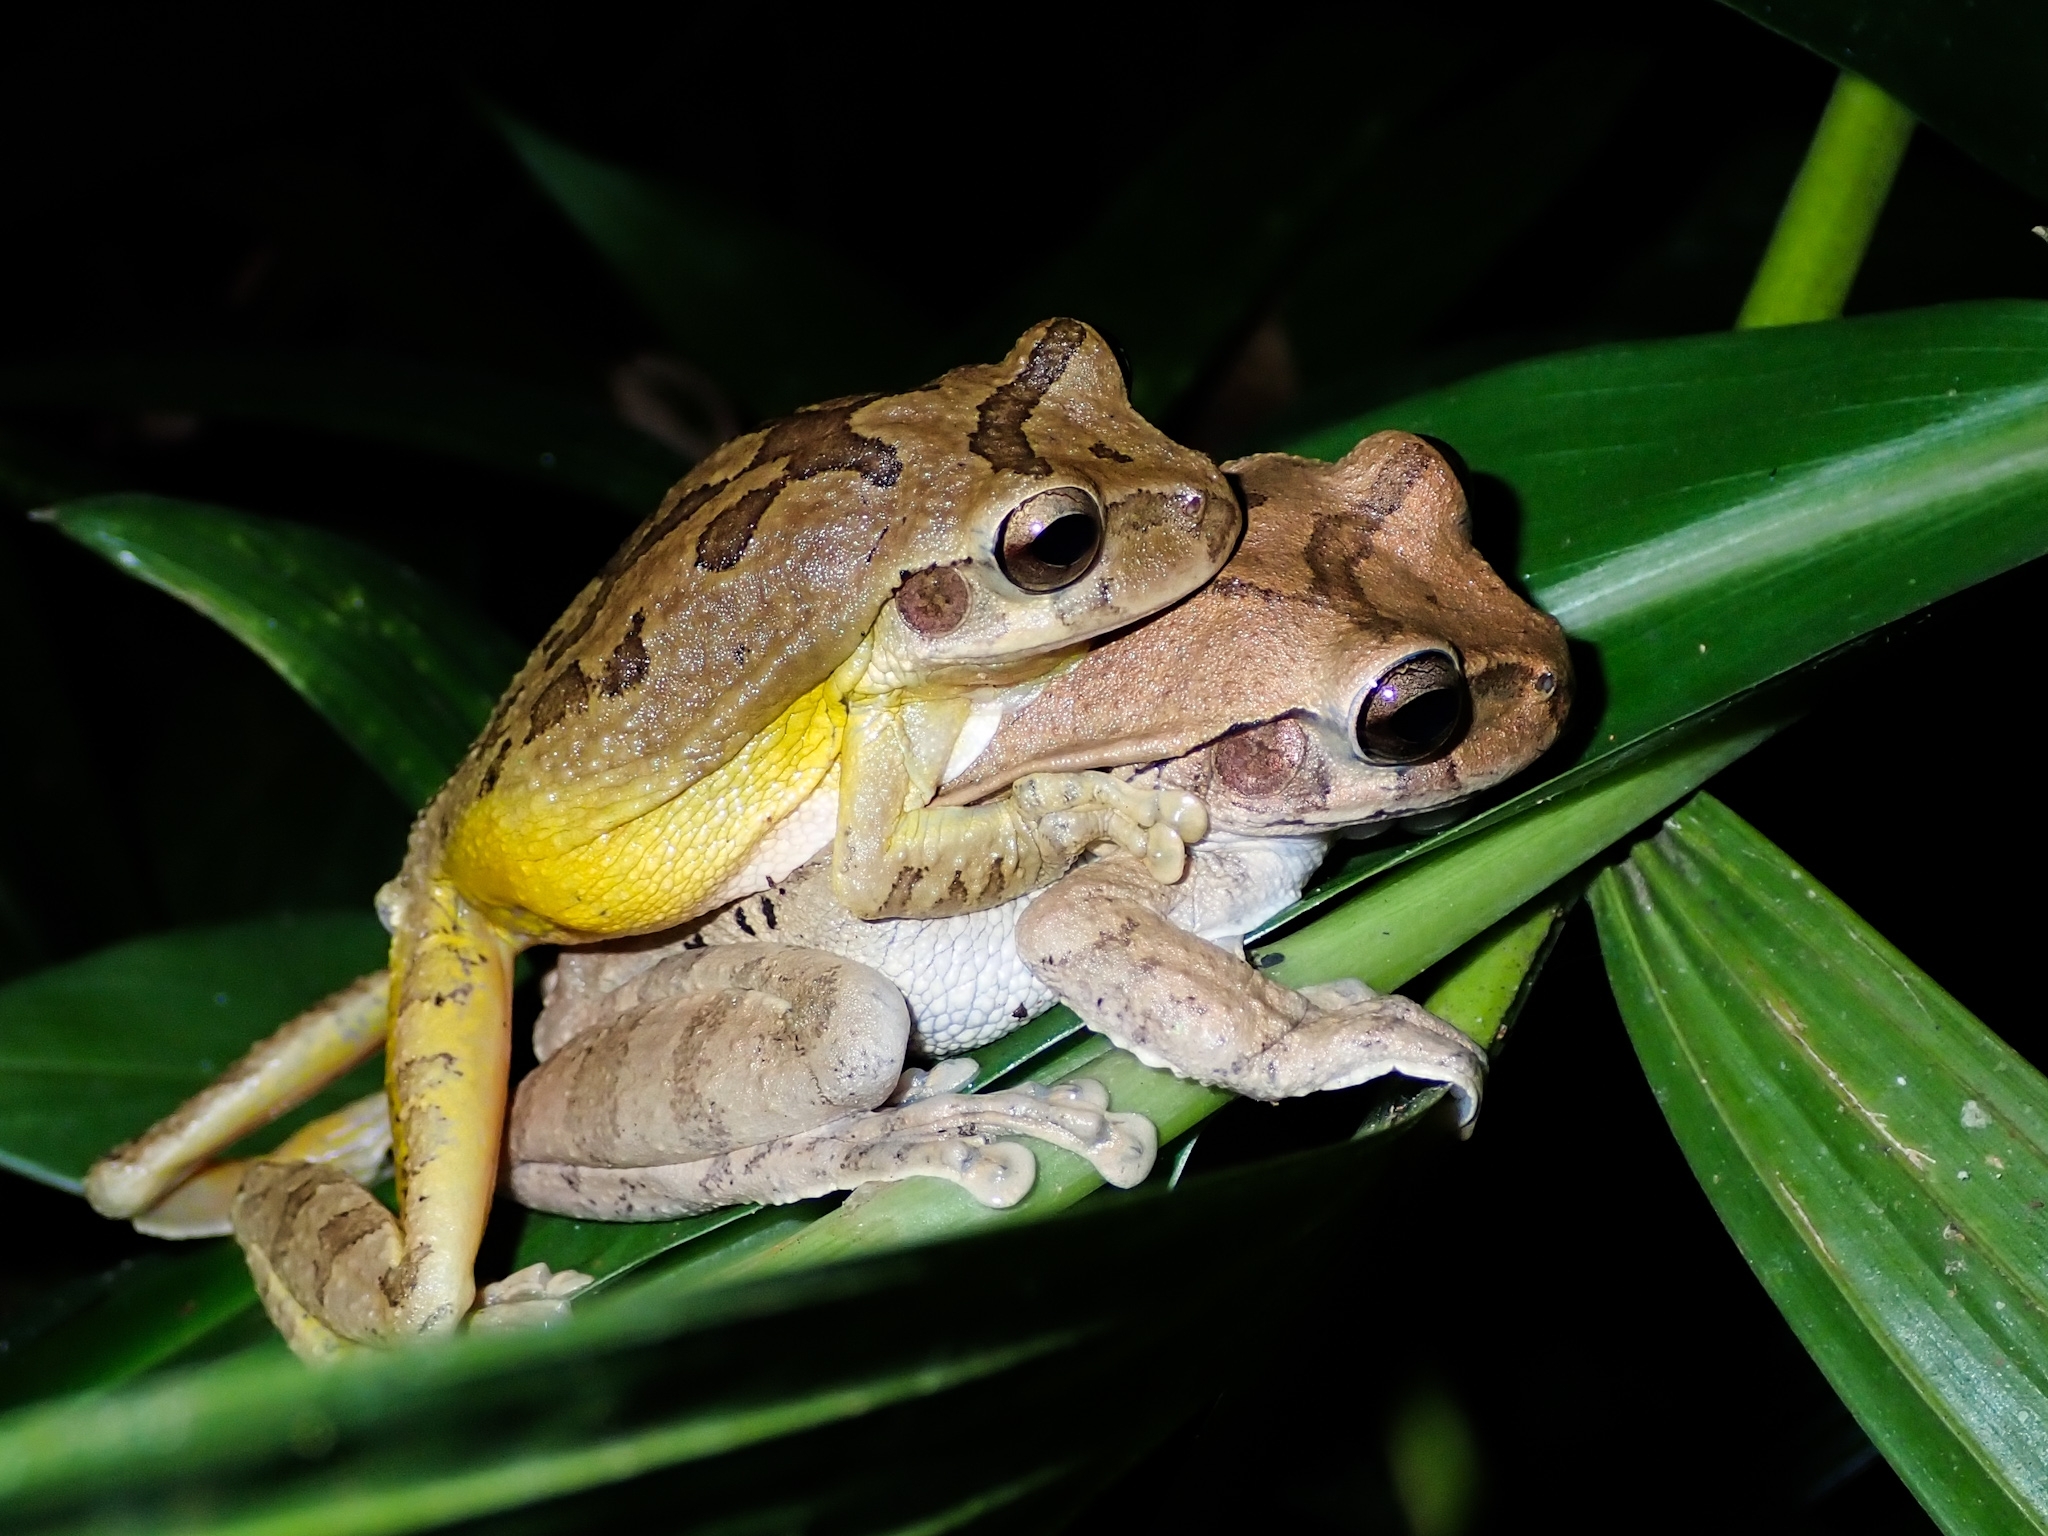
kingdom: Animalia
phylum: Chordata
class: Amphibia
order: Anura
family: Hylidae
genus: Smilisca
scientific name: Smilisca baudinii
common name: Mexican smilisca
